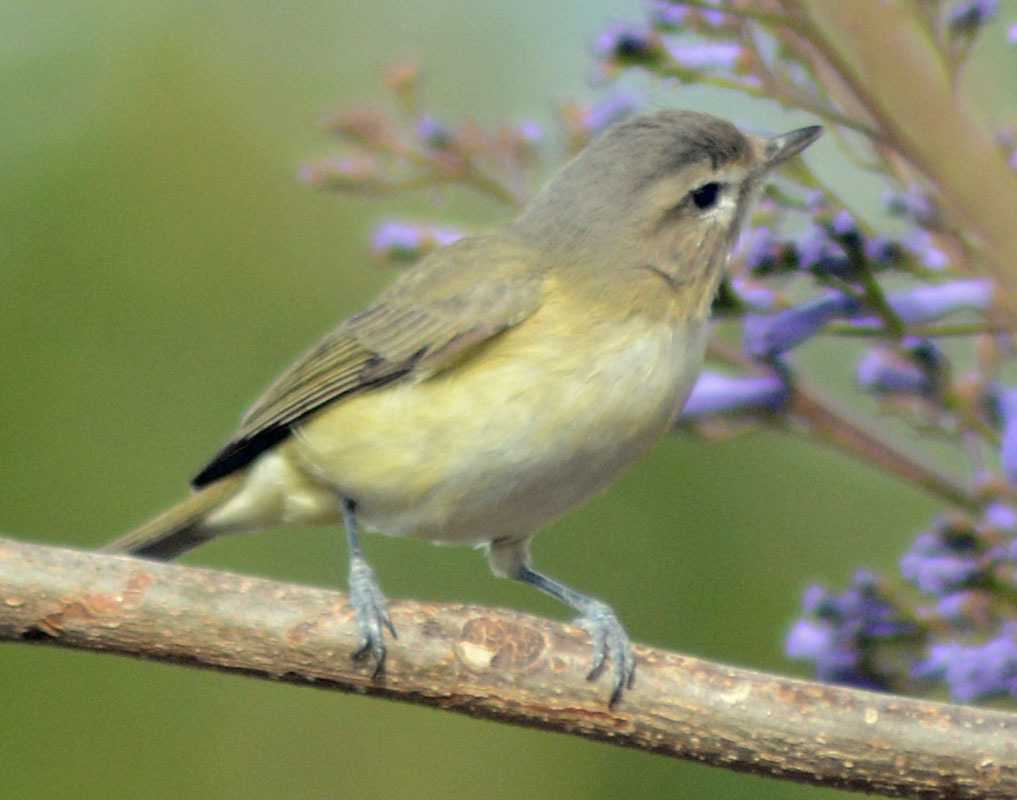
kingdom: Animalia
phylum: Chordata
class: Aves
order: Passeriformes
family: Vireonidae
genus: Vireo
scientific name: Vireo gilvus
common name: Warbling vireo
